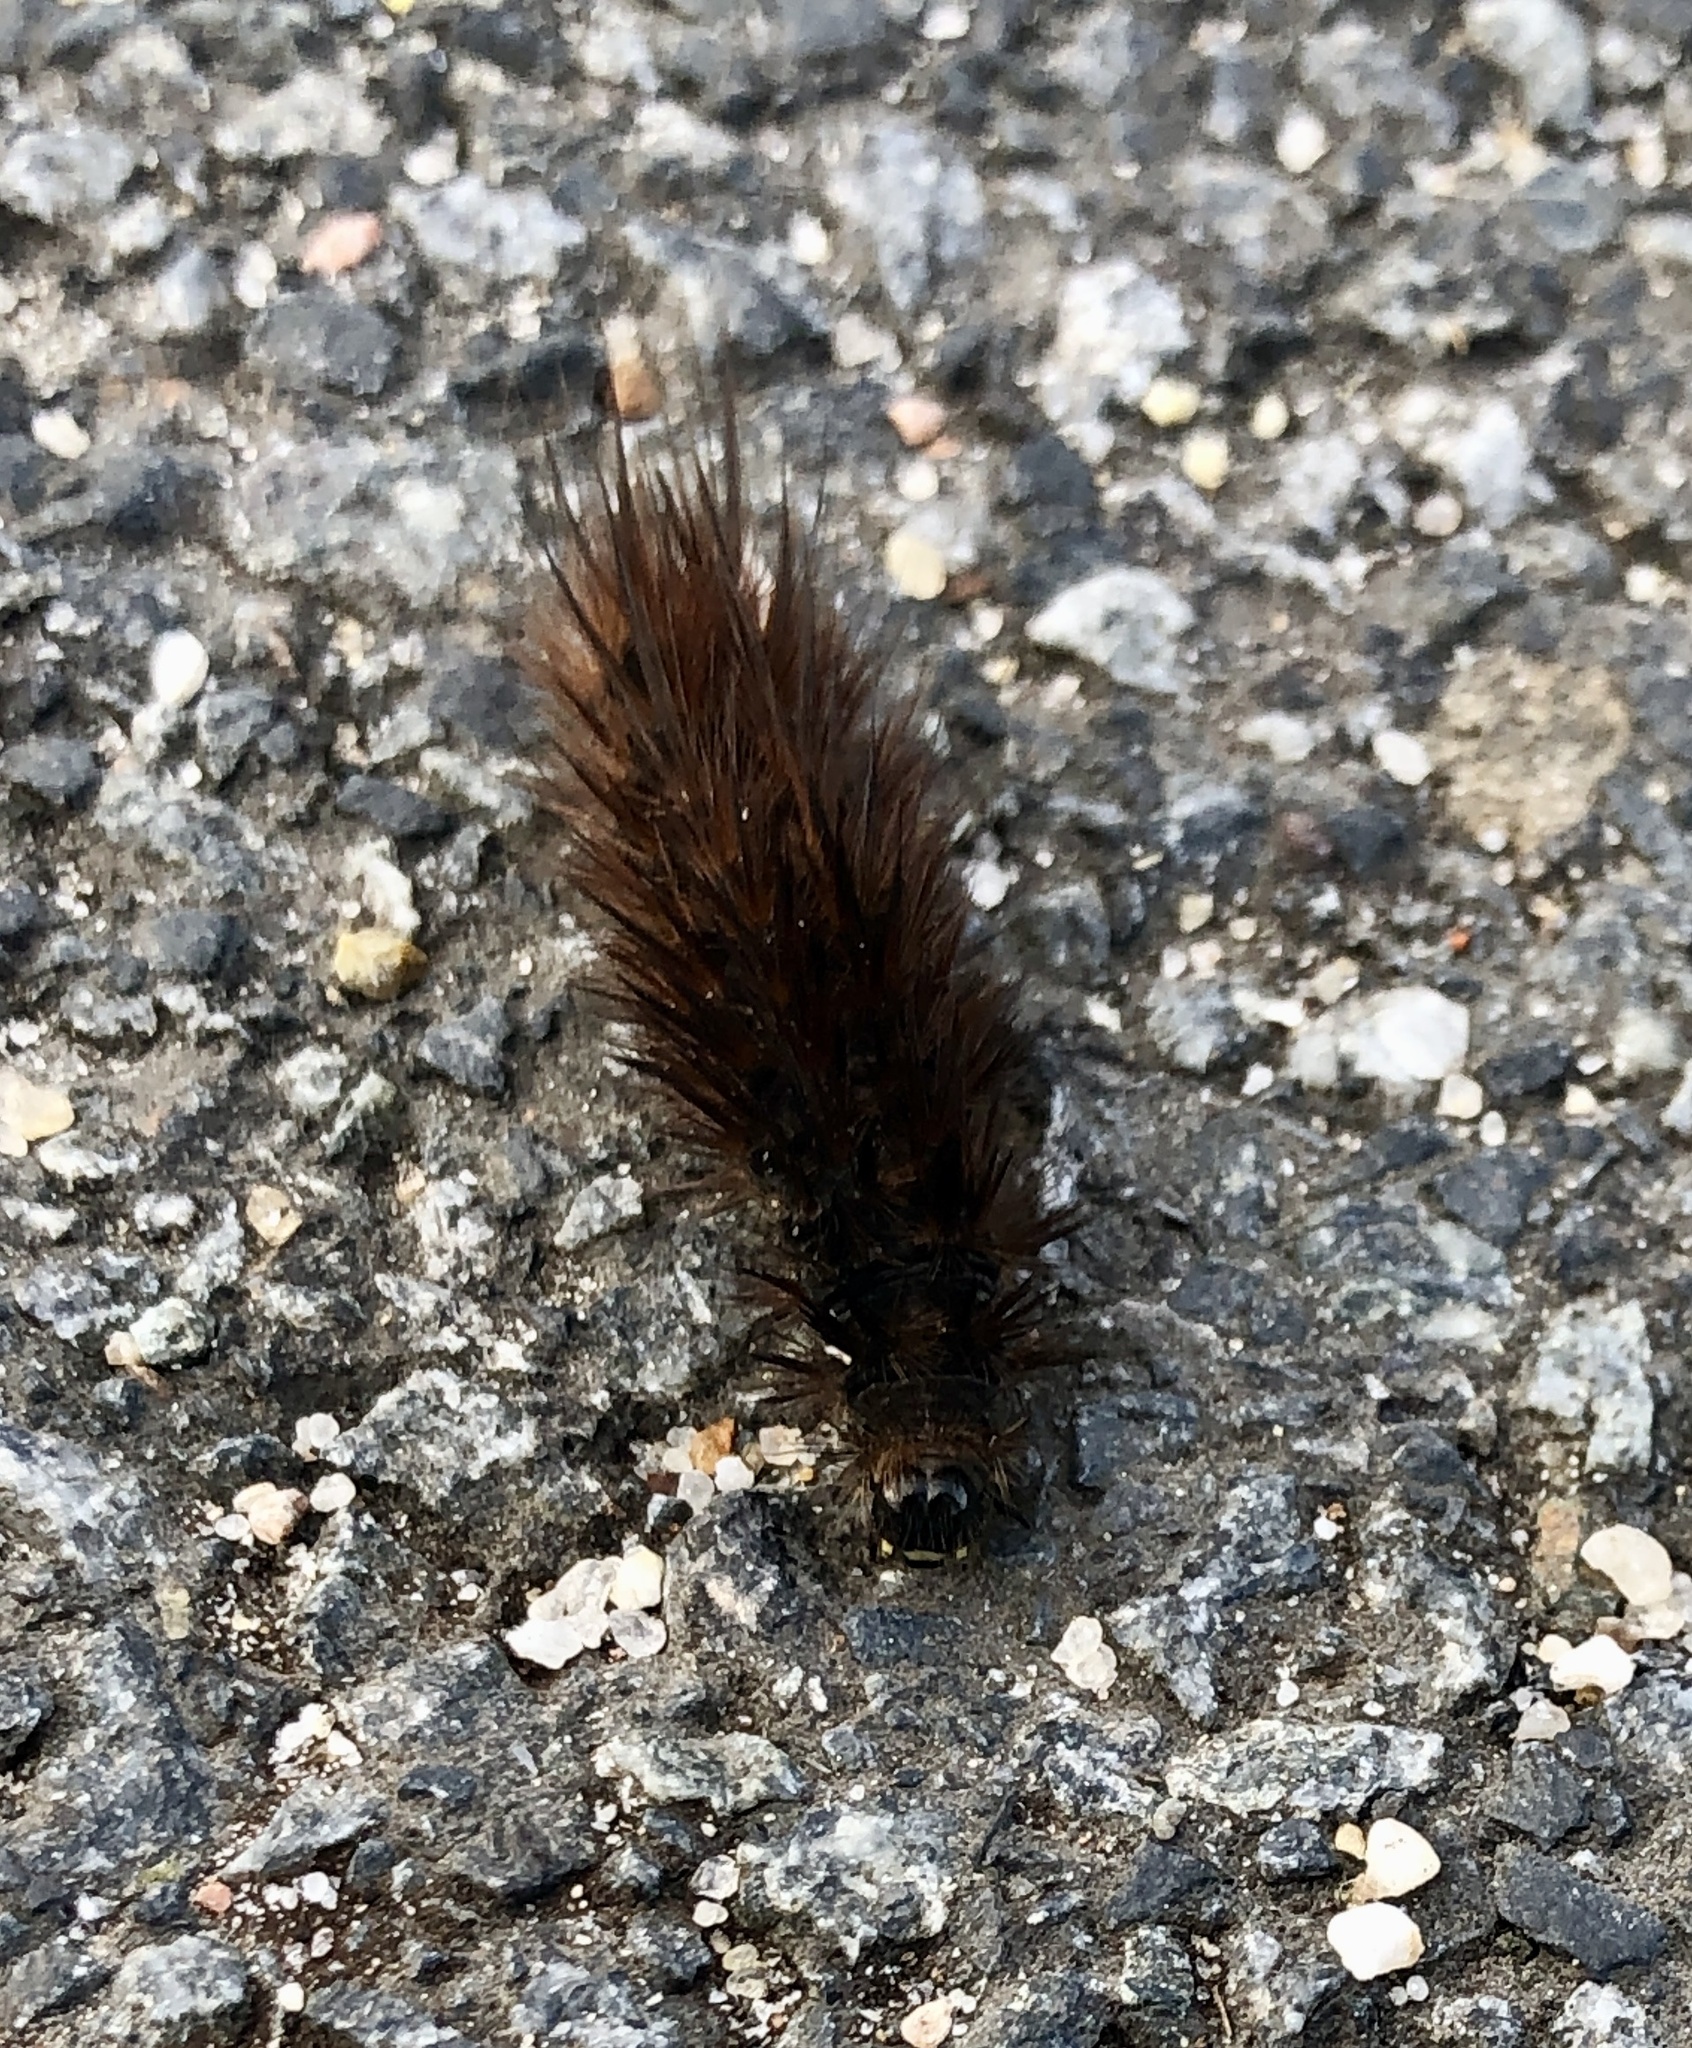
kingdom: Animalia
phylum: Arthropoda
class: Insecta
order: Lepidoptera
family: Erebidae
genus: Phragmatobia
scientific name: Phragmatobia fuliginosa
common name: Ruby tiger
